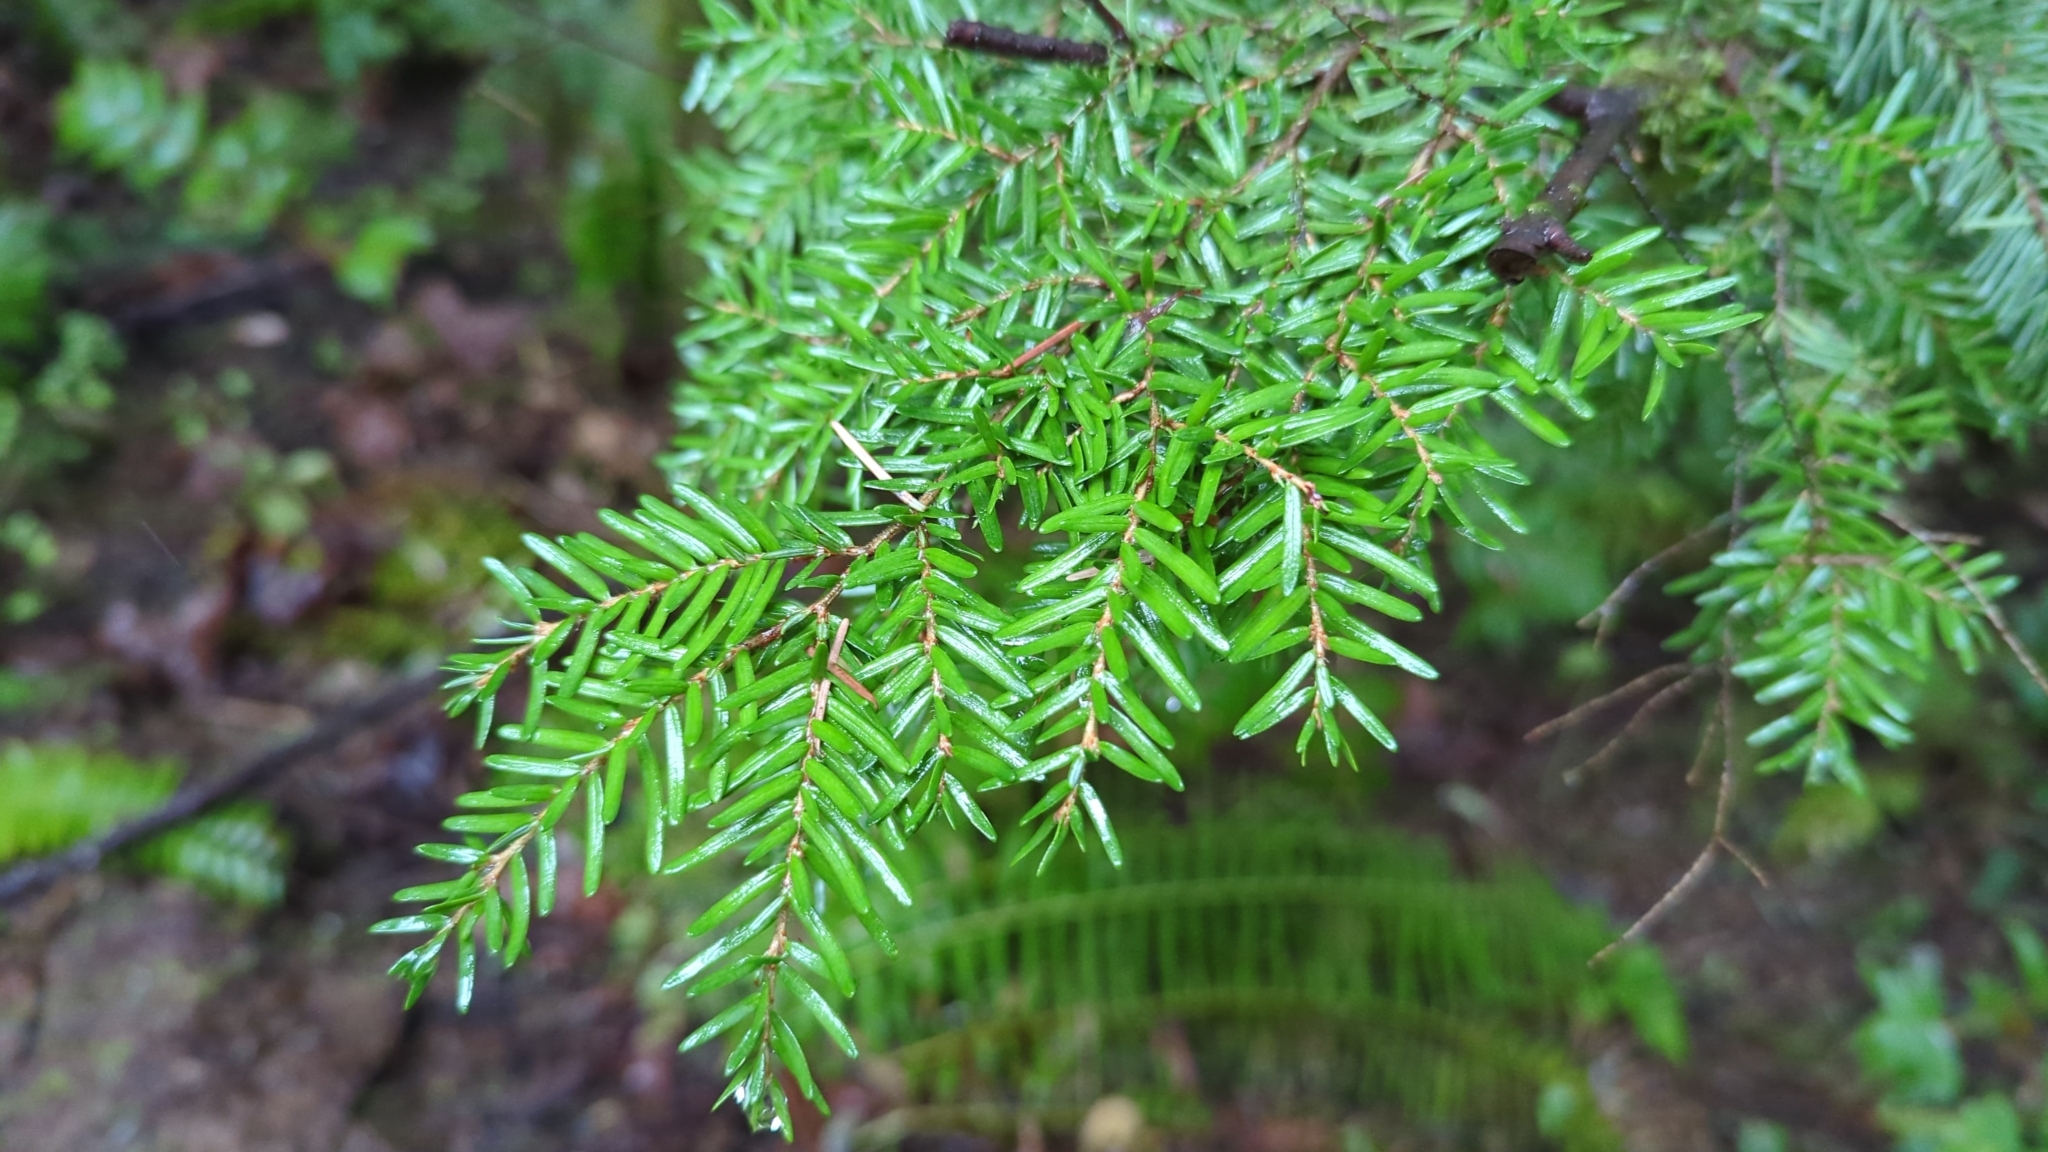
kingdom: Plantae
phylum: Tracheophyta
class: Pinopsida
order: Pinales
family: Pinaceae
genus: Tsuga
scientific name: Tsuga heterophylla
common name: Western hemlock
